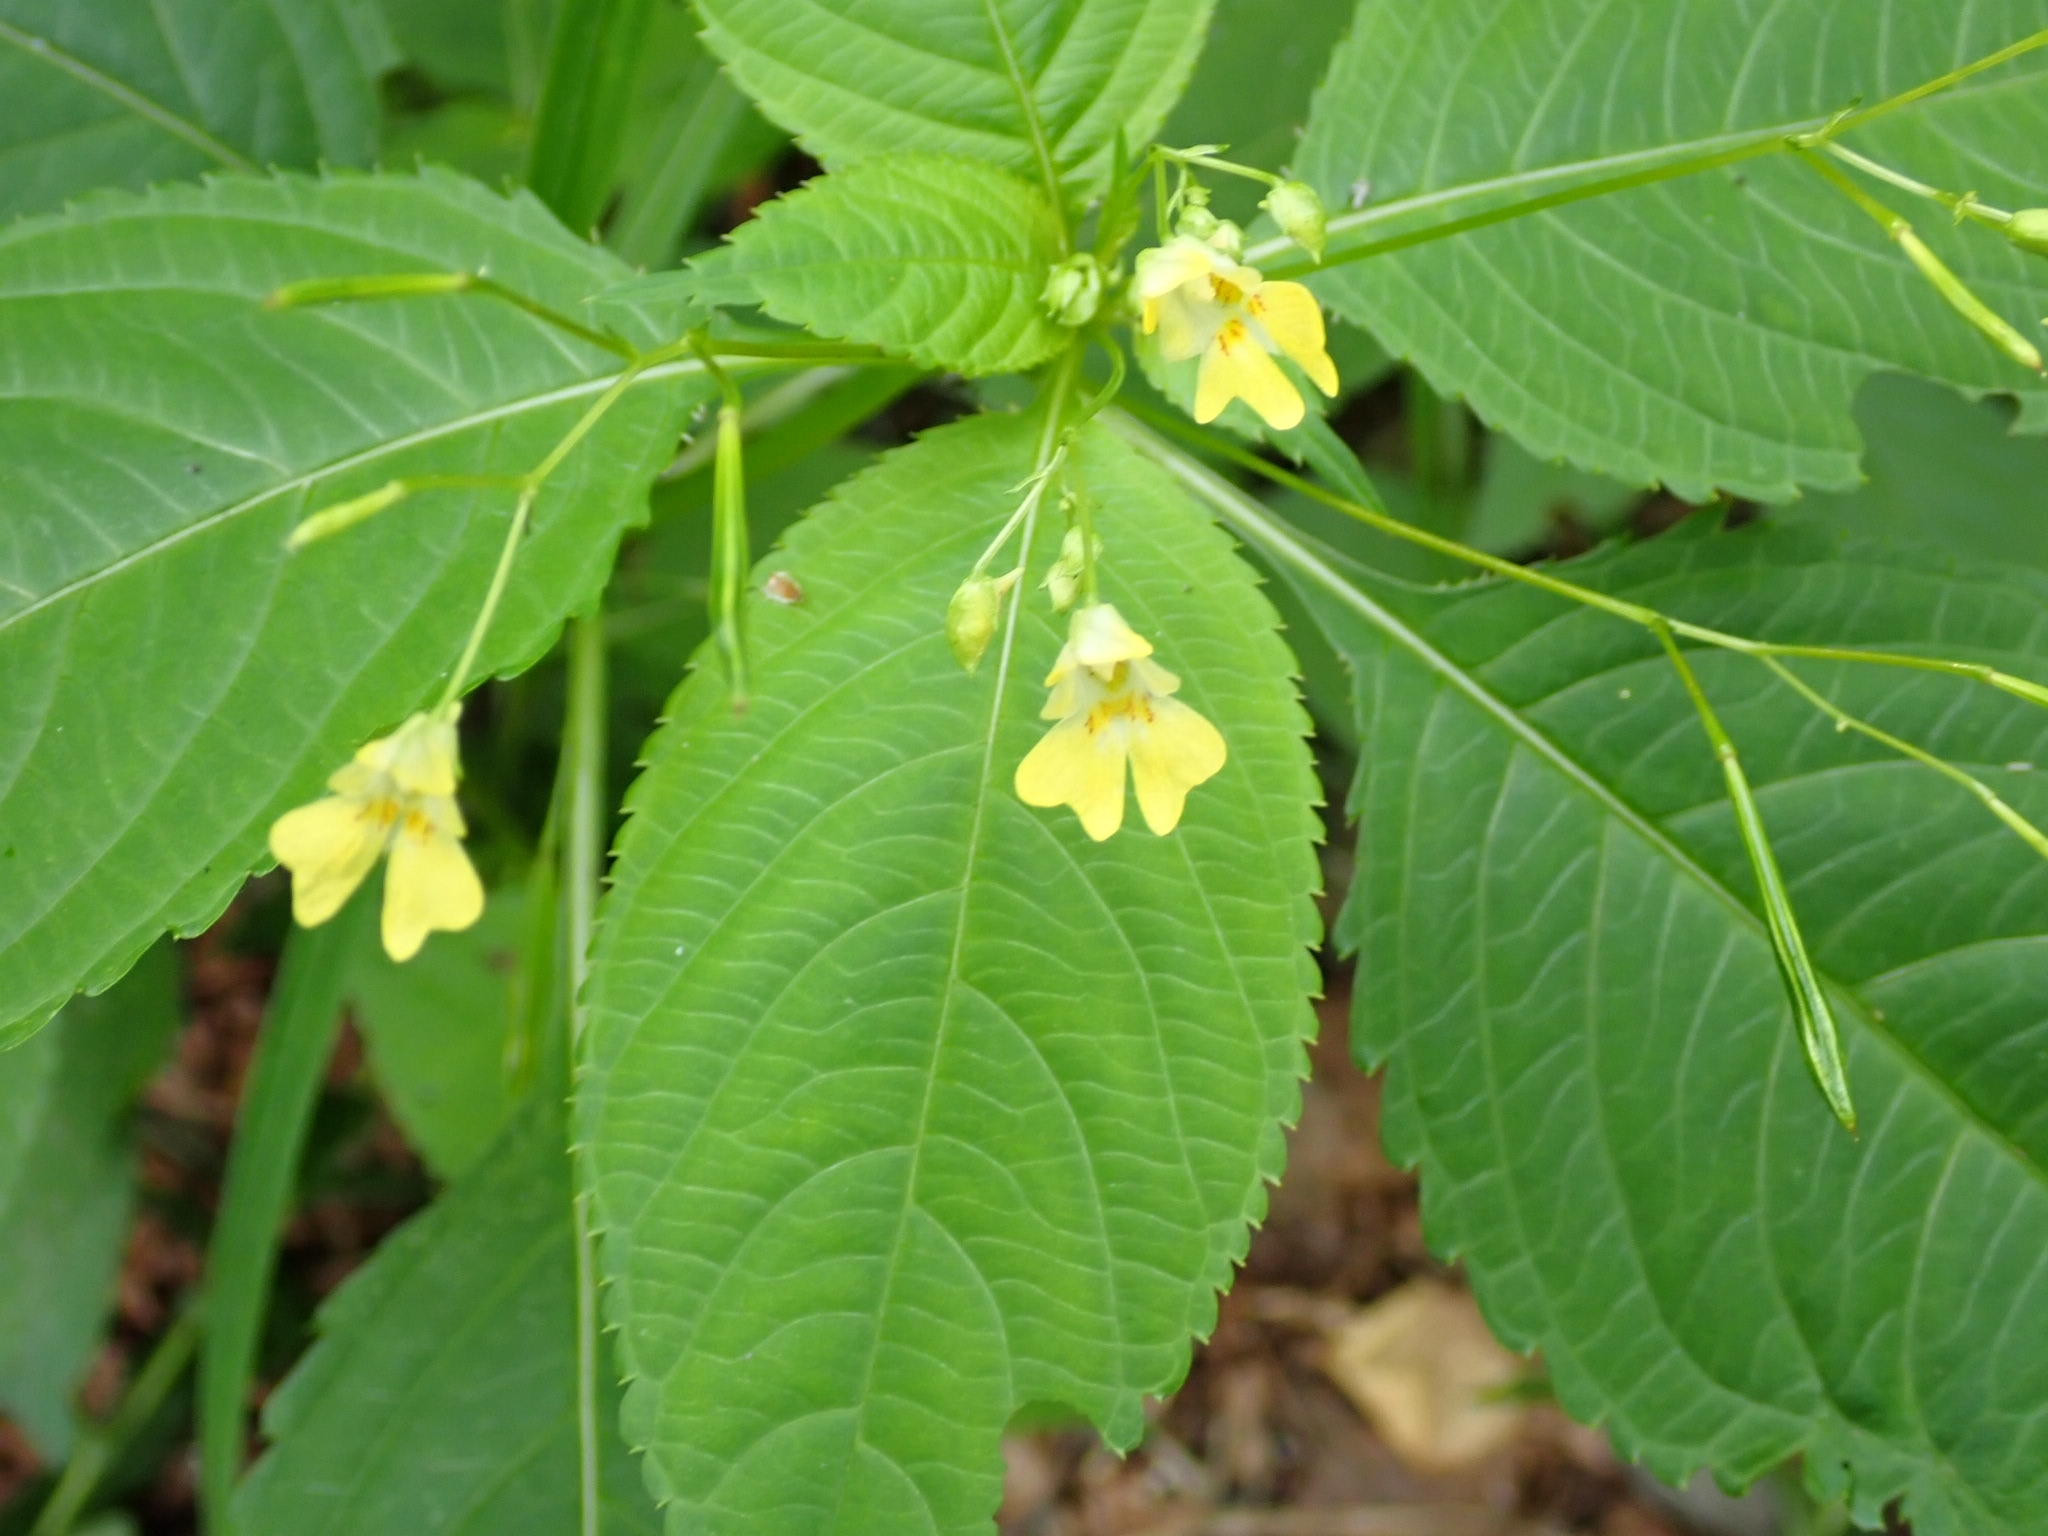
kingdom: Plantae
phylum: Tracheophyta
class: Magnoliopsida
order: Ericales
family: Balsaminaceae
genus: Impatiens
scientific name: Impatiens parviflora
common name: Small balsam
